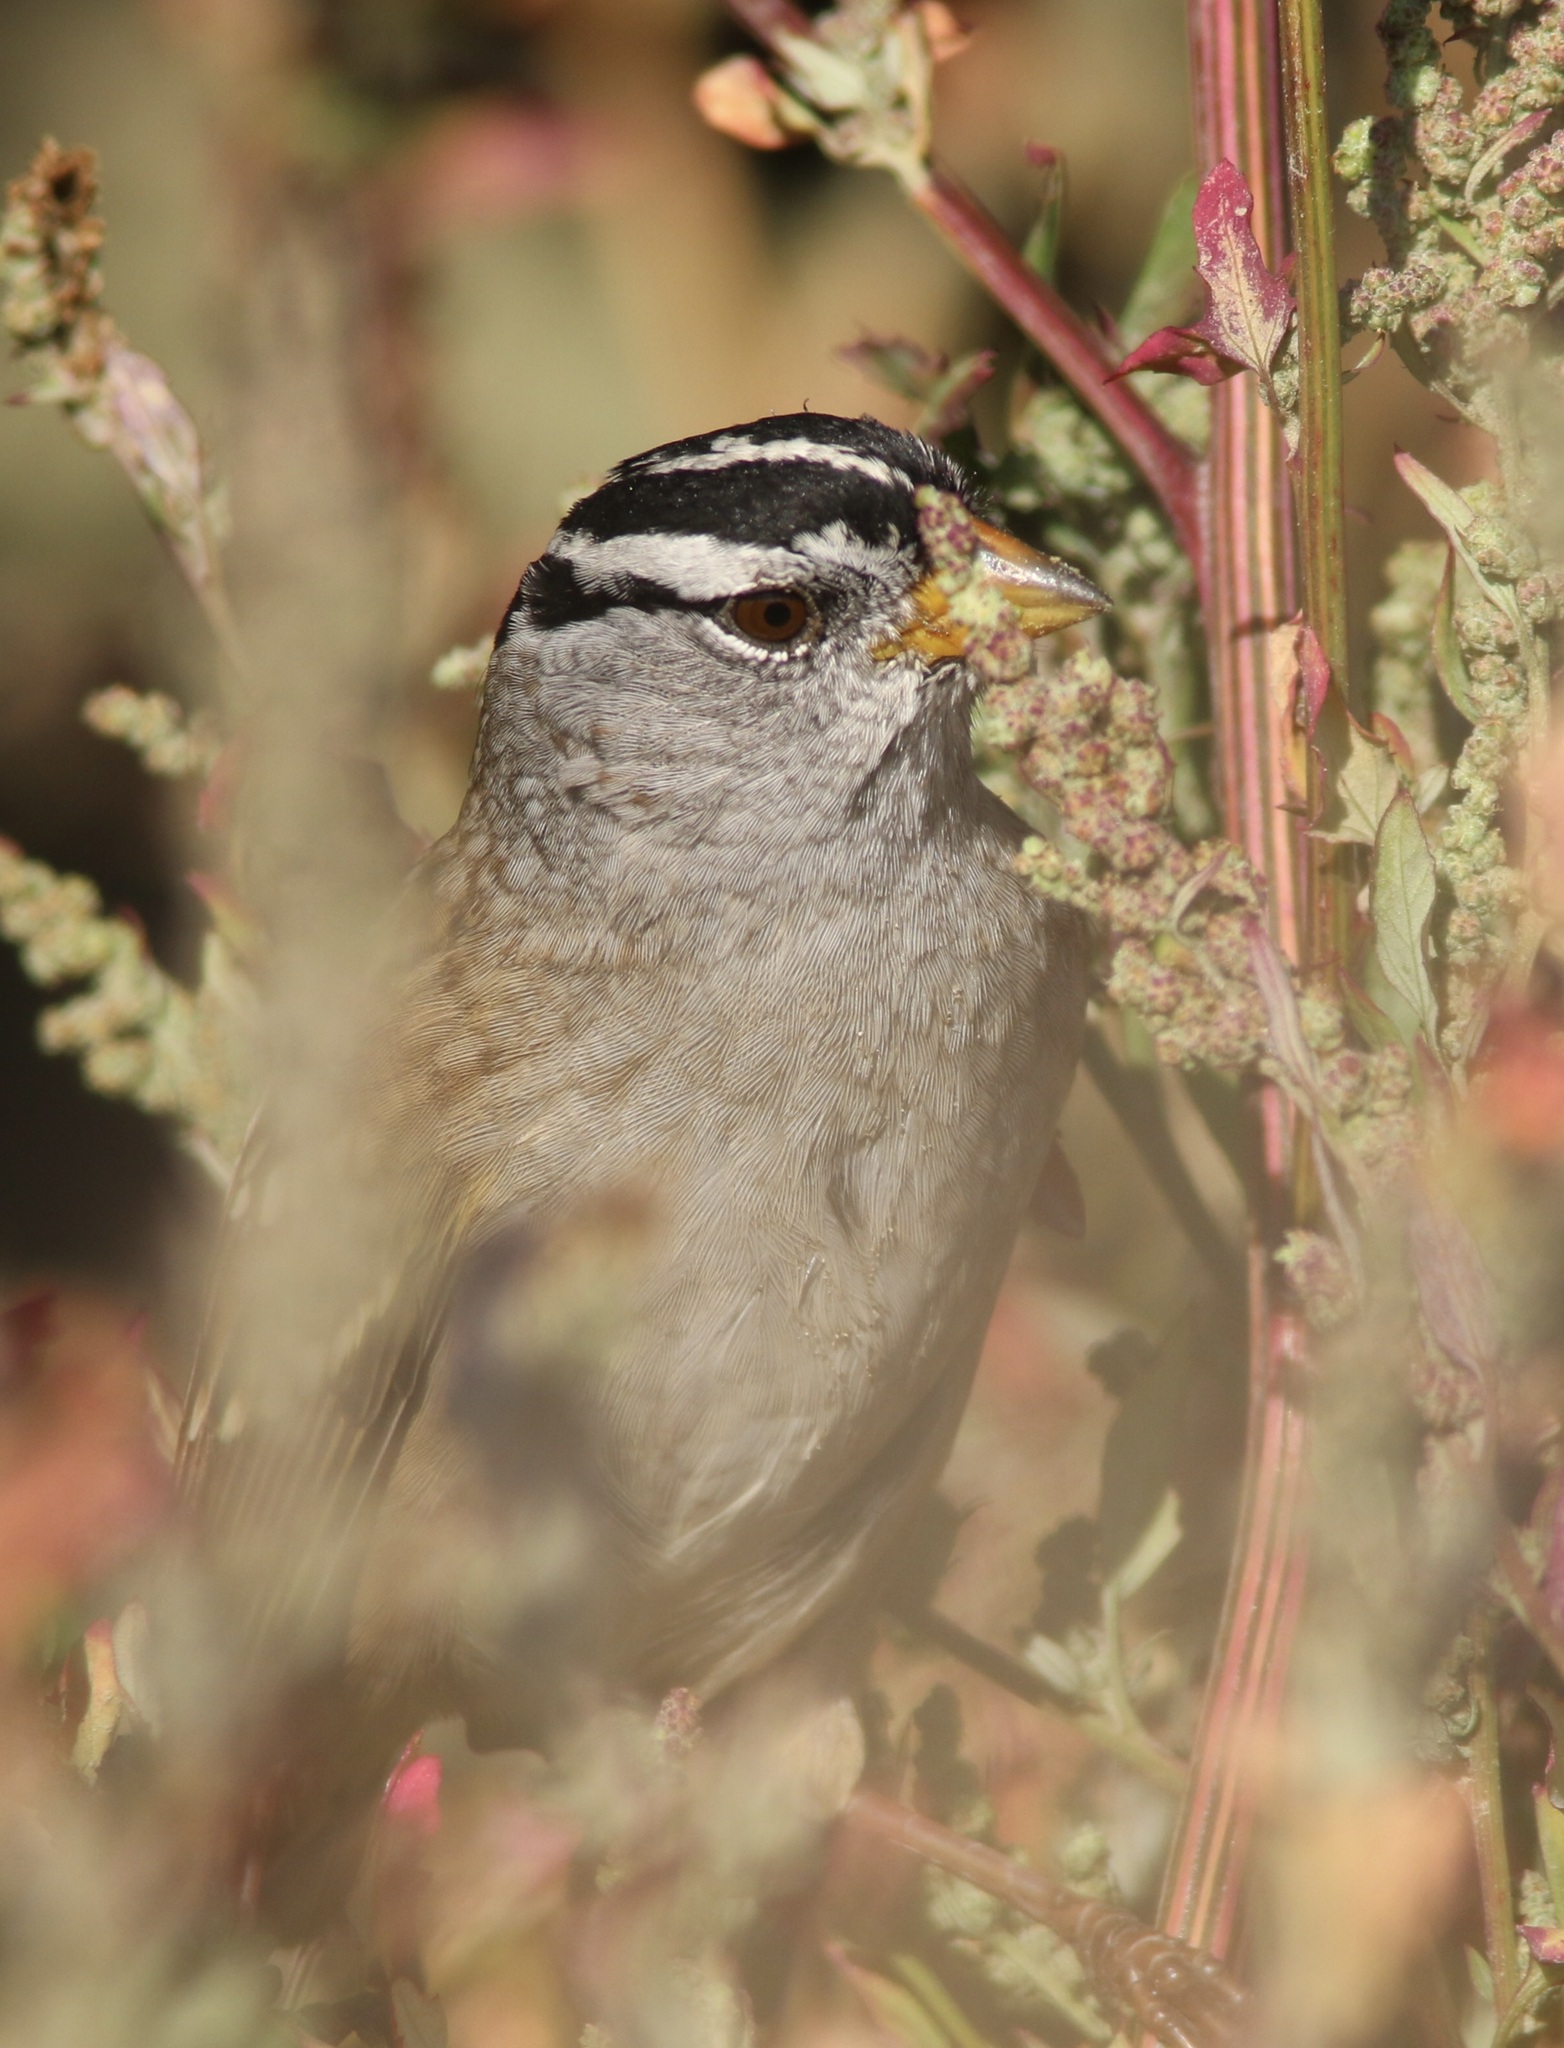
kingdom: Animalia
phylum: Chordata
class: Aves
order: Passeriformes
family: Passerellidae
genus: Zonotrichia
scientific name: Zonotrichia leucophrys
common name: White-crowned sparrow
